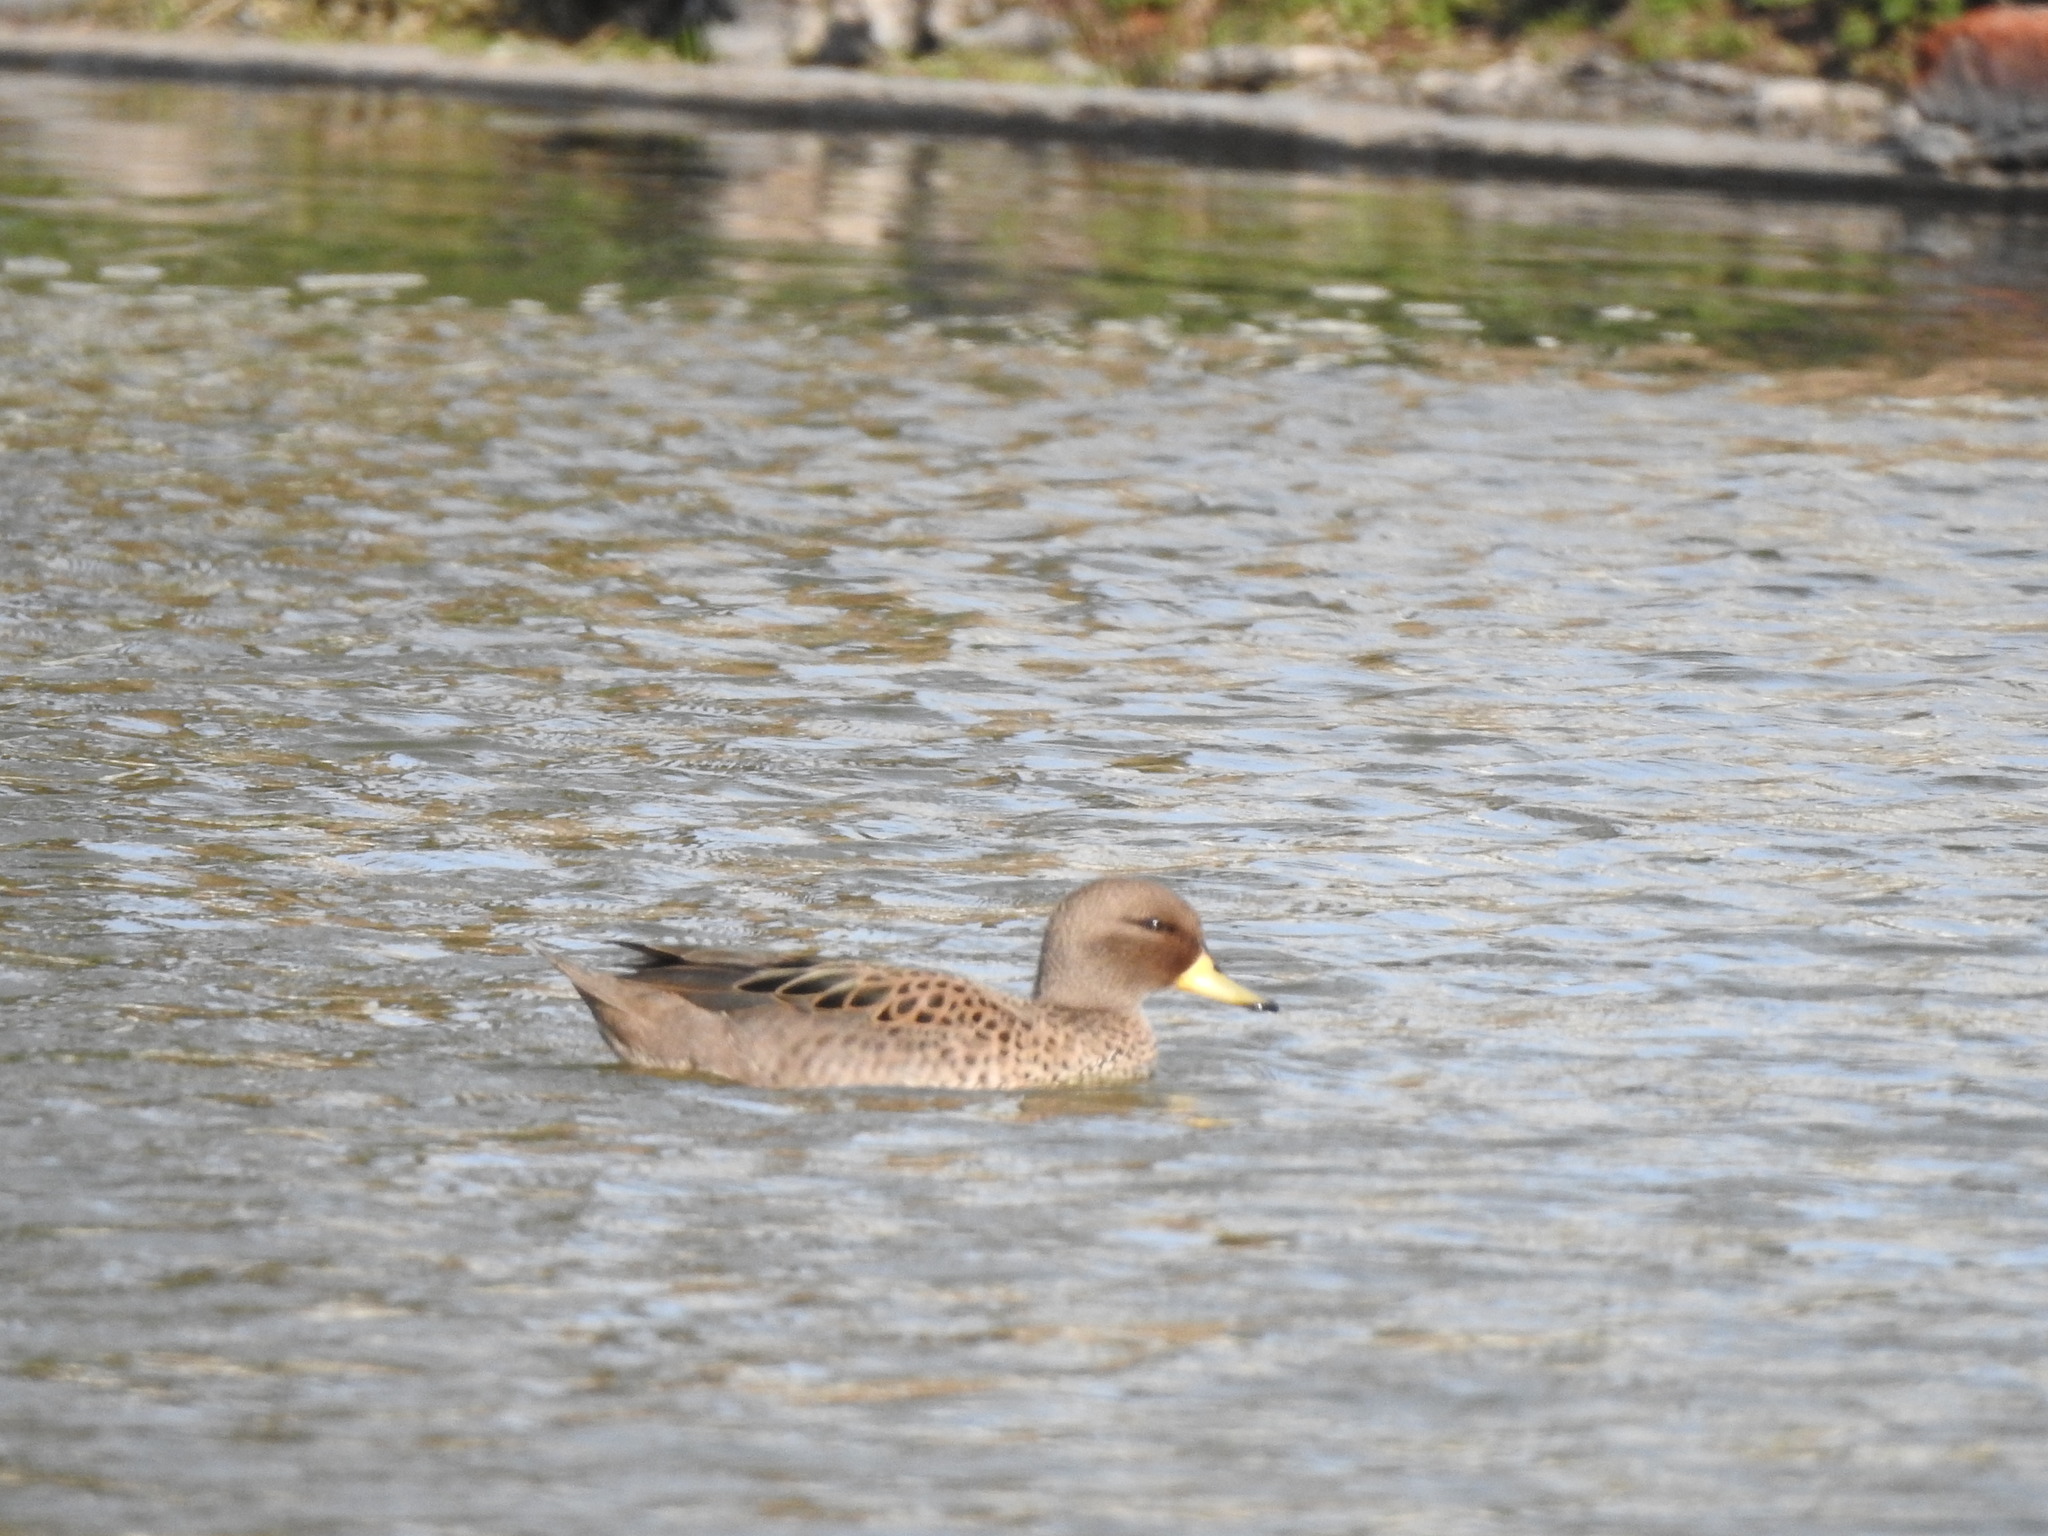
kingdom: Animalia
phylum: Chordata
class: Aves
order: Anseriformes
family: Anatidae
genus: Anas
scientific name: Anas flavirostris
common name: Yellow-billed teal
